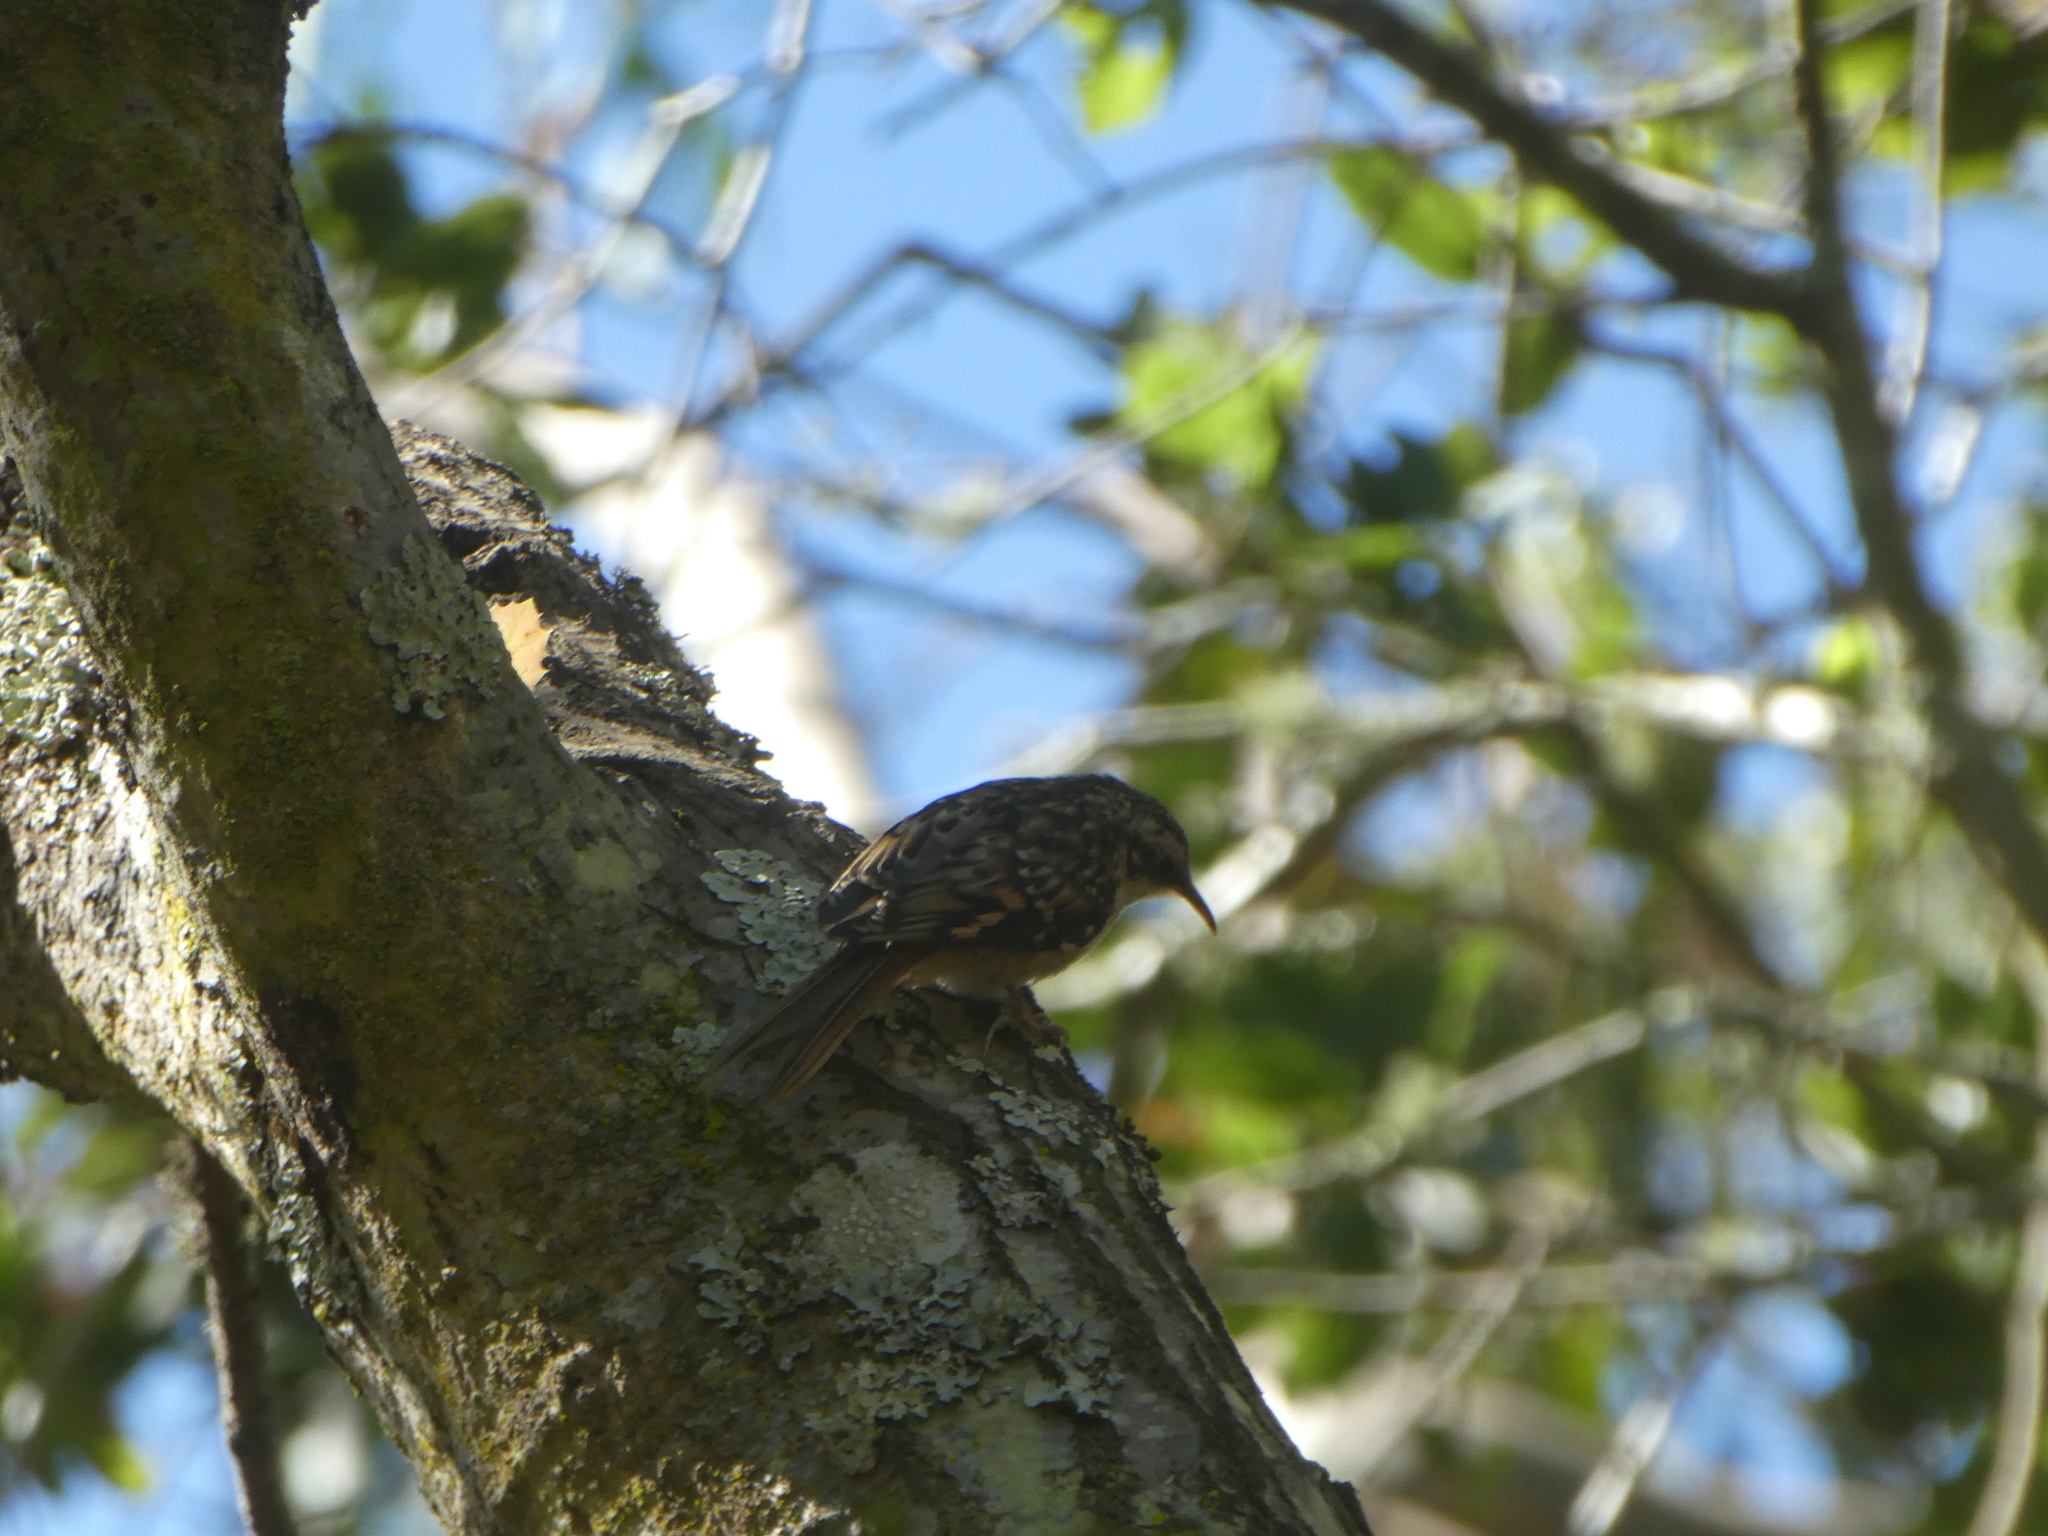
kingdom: Animalia
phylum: Chordata
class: Aves
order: Passeriformes
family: Certhiidae
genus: Certhia
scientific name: Certhia americana
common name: Brown creeper
